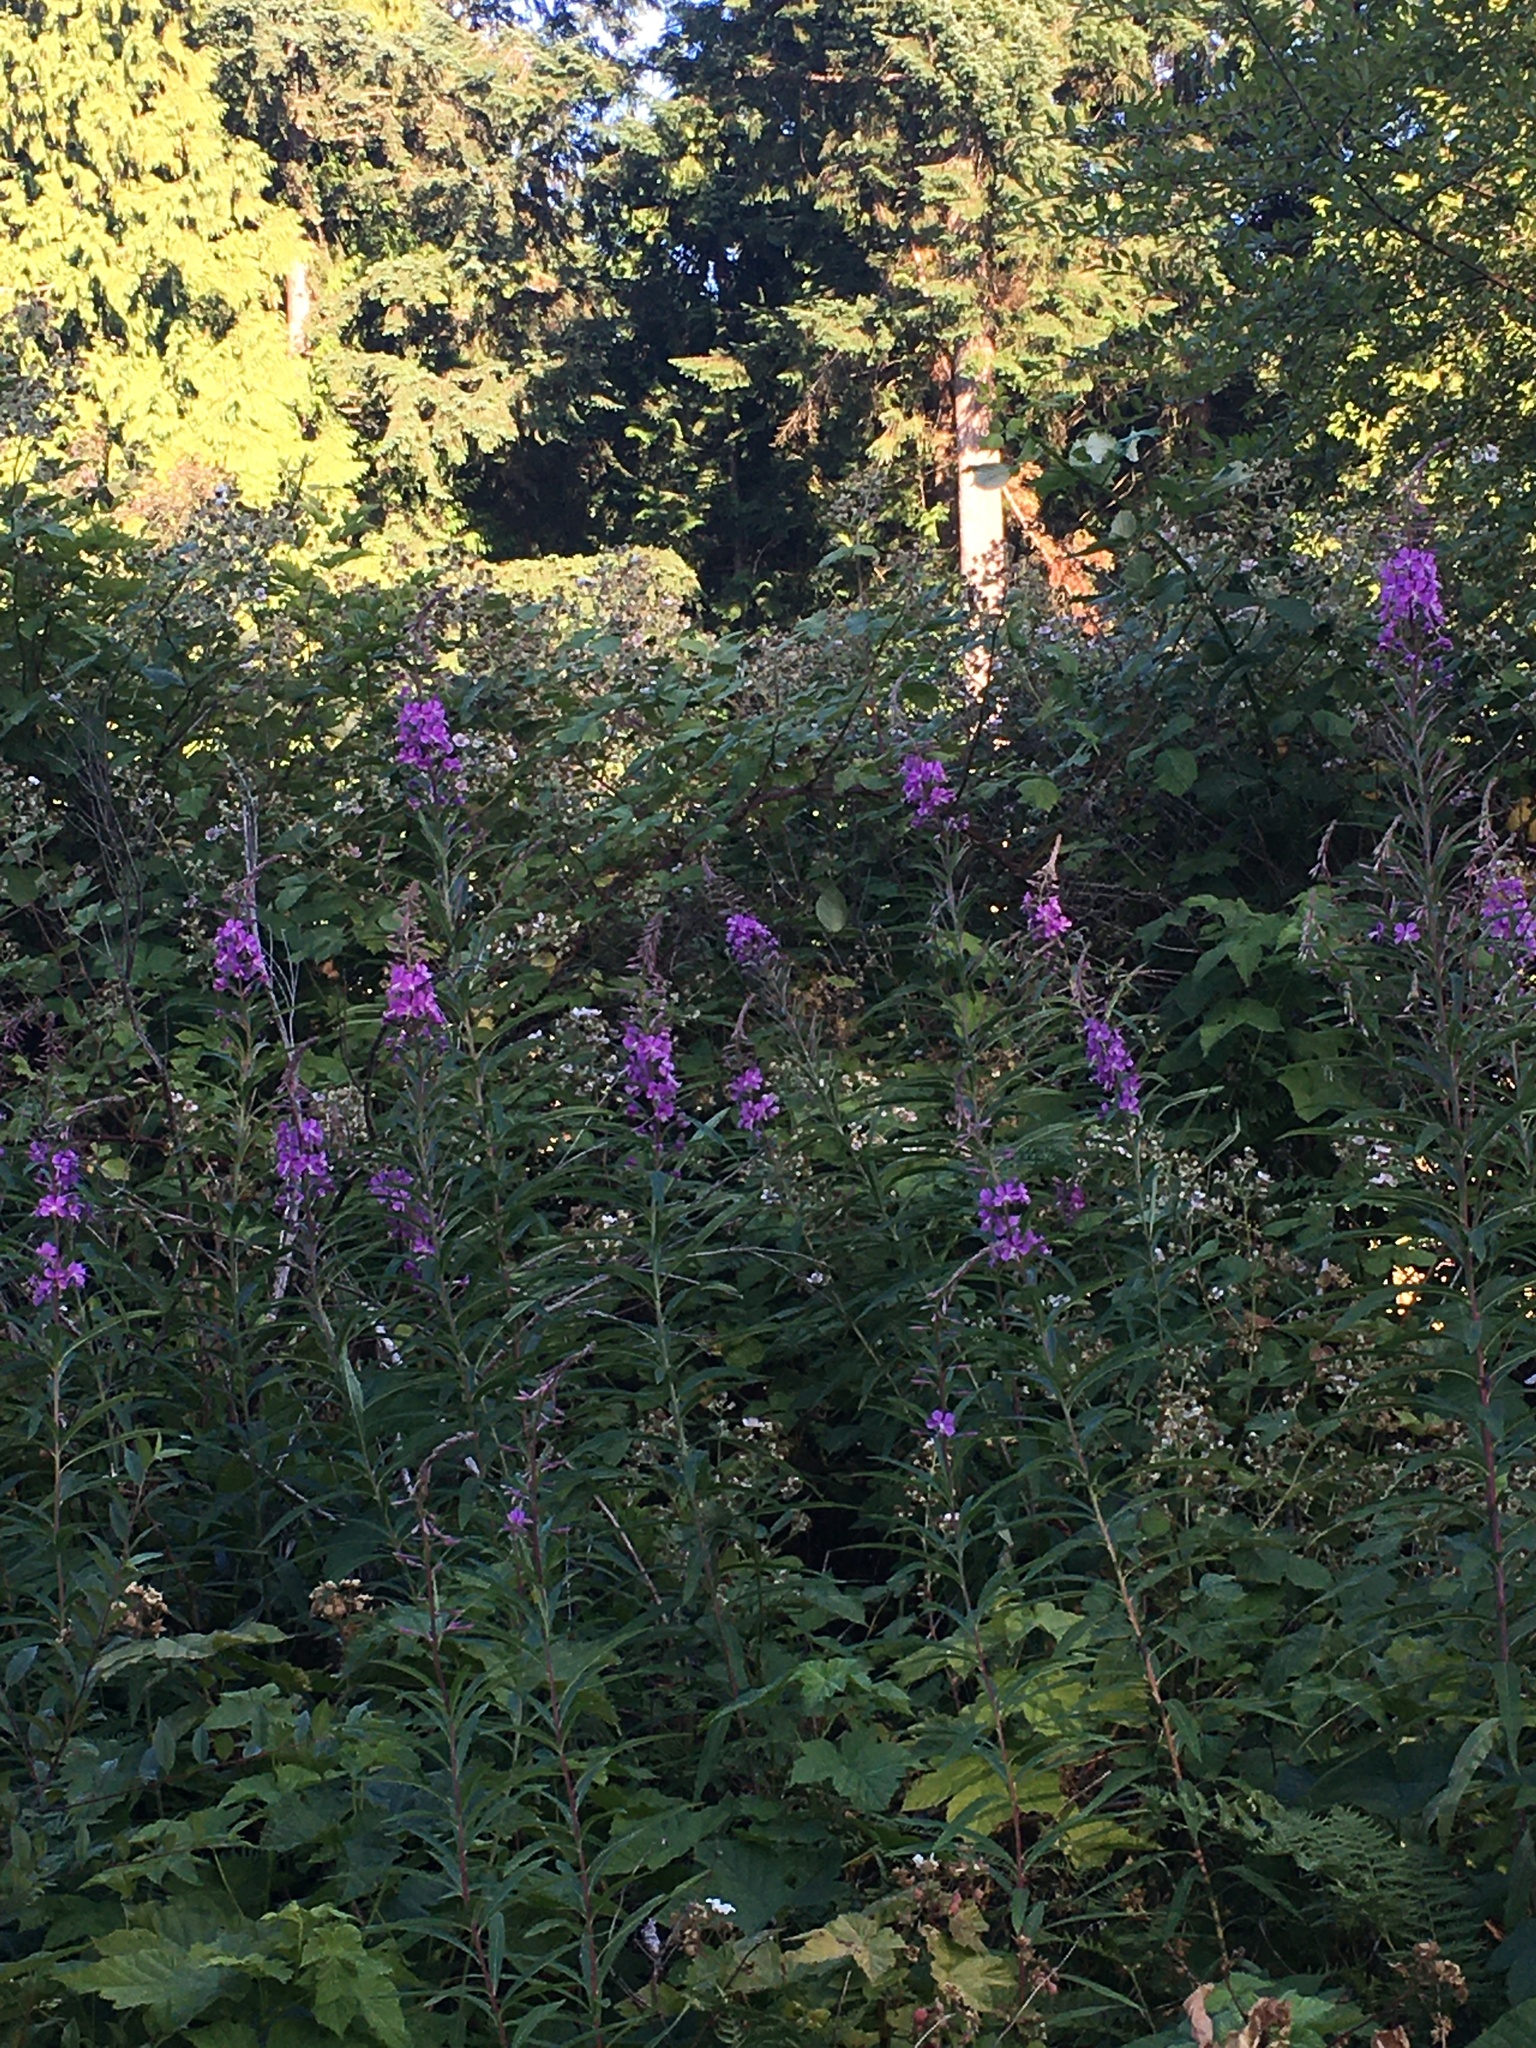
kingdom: Plantae
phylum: Tracheophyta
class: Magnoliopsida
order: Myrtales
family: Onagraceae
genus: Chamaenerion
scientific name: Chamaenerion angustifolium
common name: Fireweed
